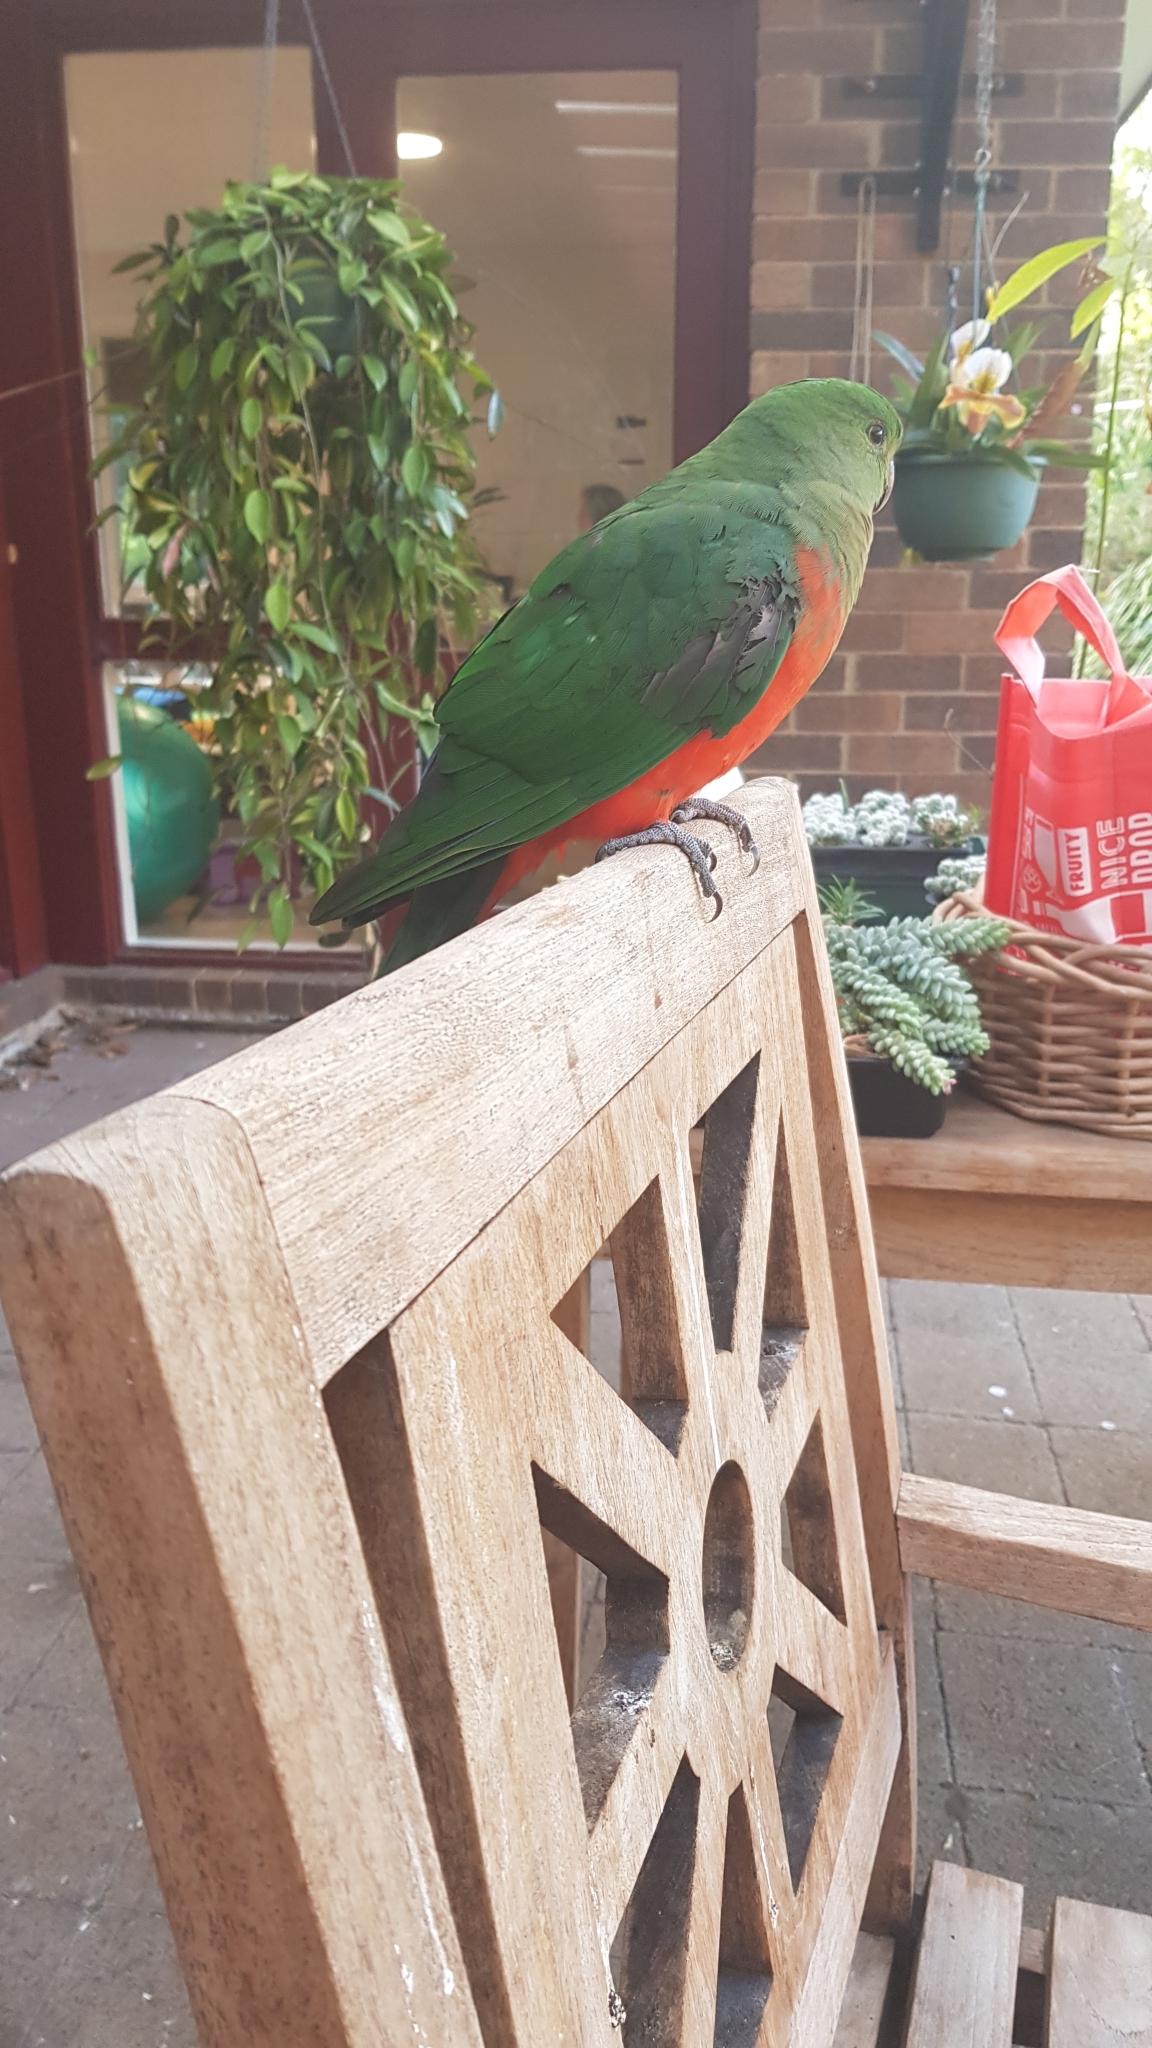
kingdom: Animalia
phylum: Chordata
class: Aves
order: Psittaciformes
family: Psittacidae
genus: Alisterus
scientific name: Alisterus scapularis
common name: Australian king parrot
